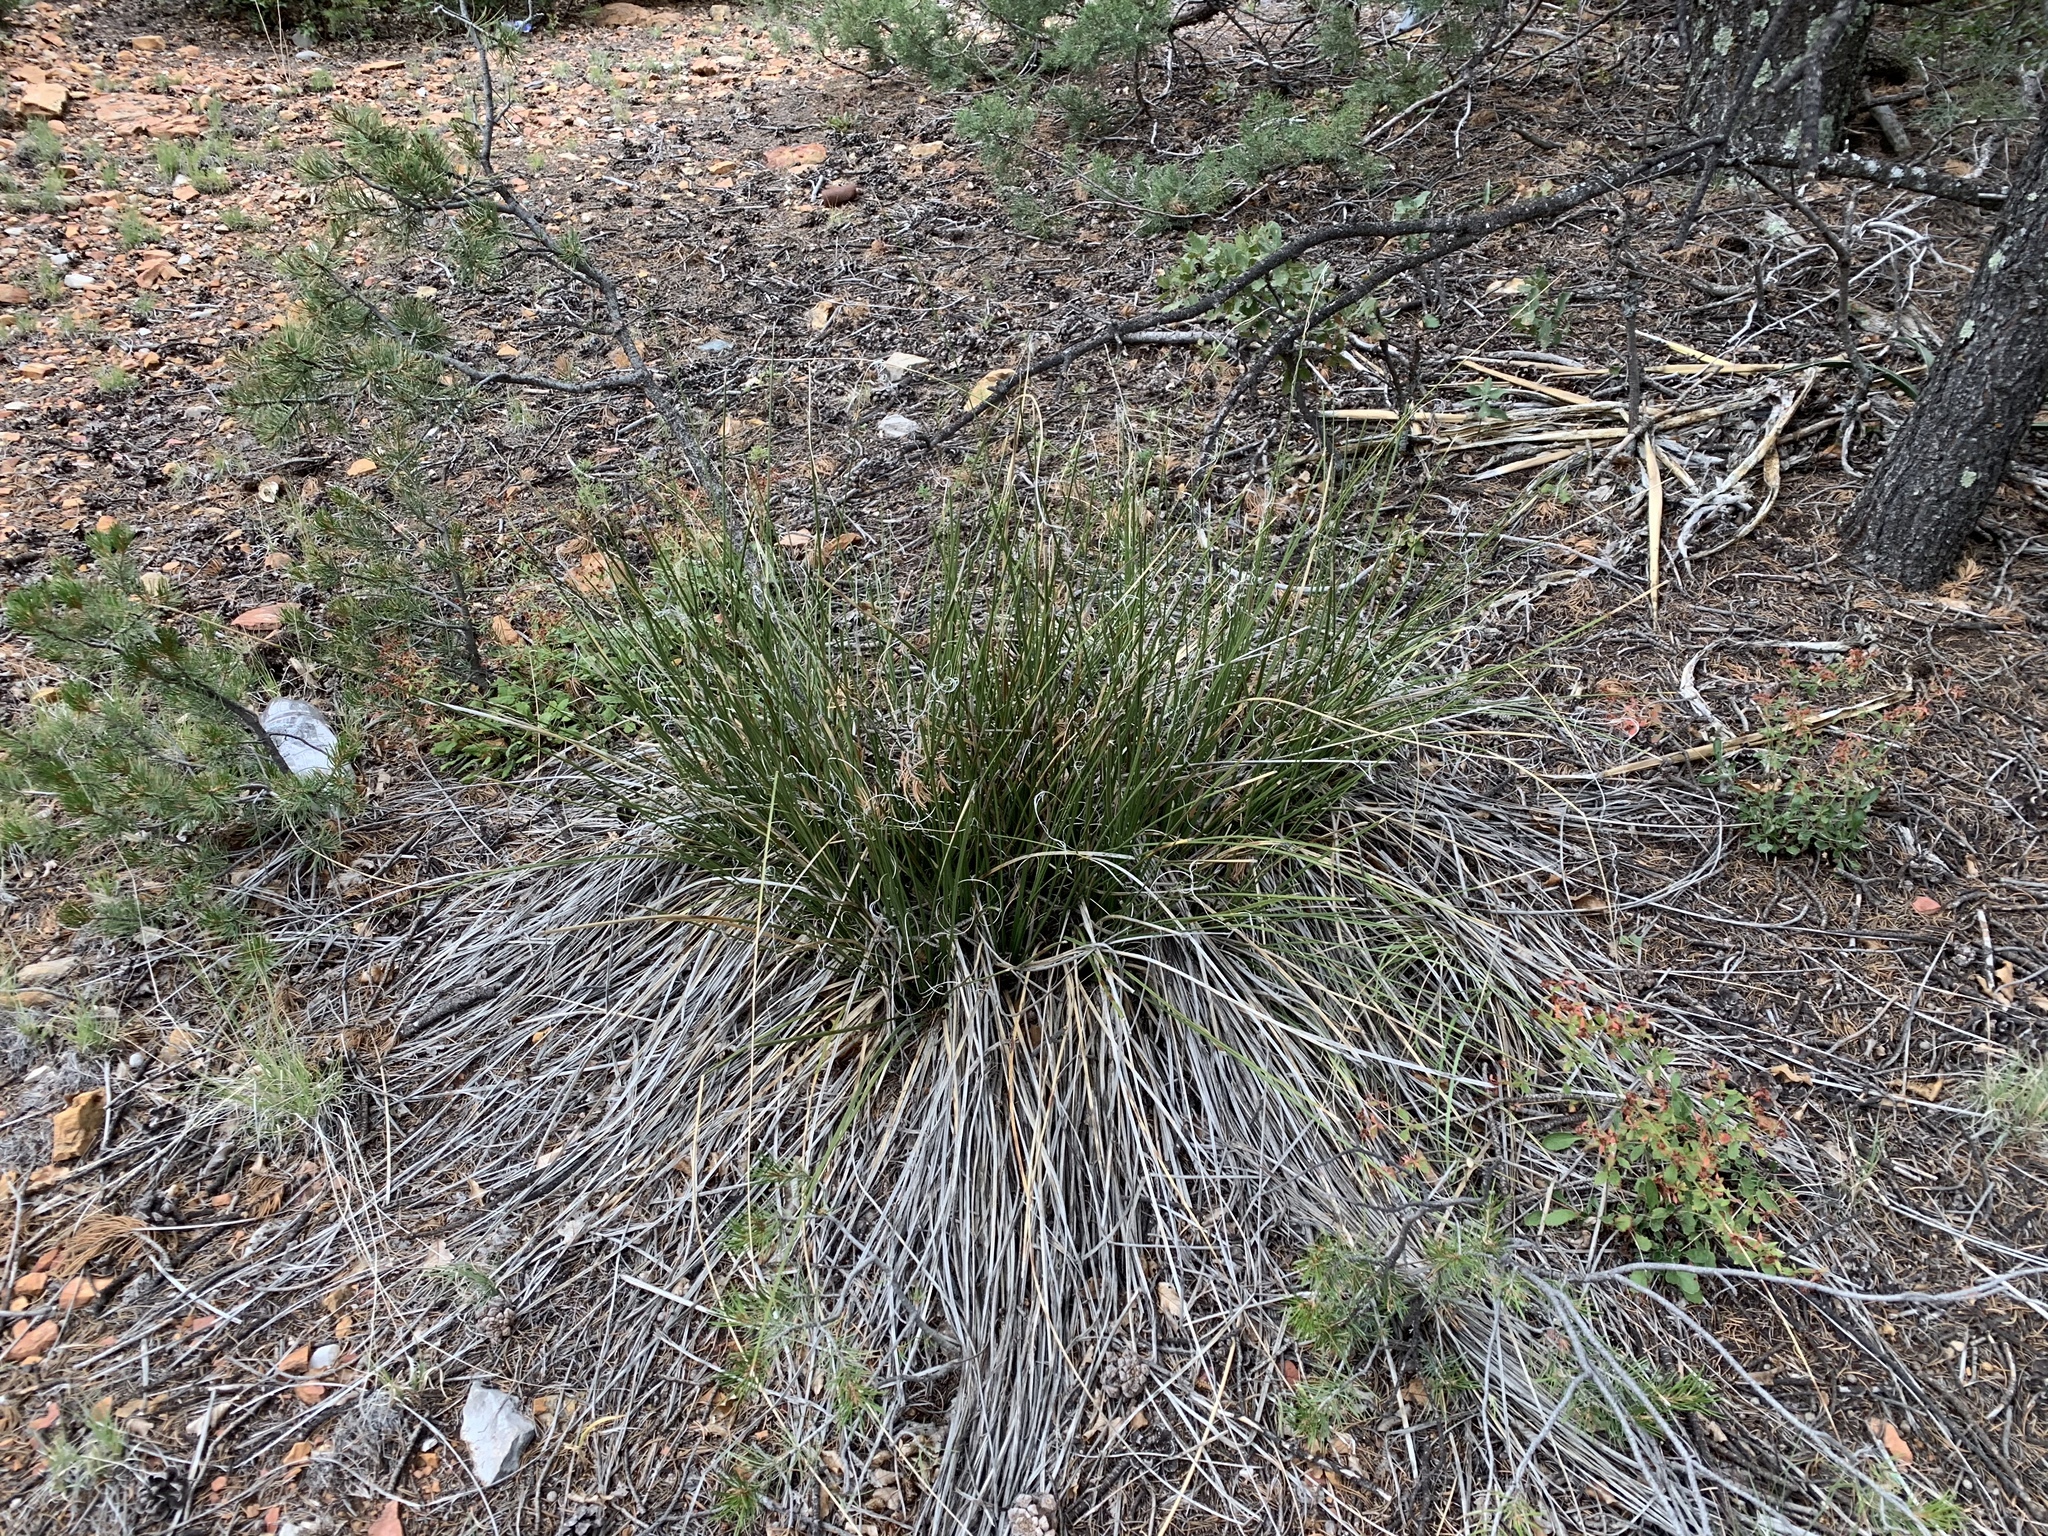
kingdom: Plantae
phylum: Tracheophyta
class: Liliopsida
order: Asparagales
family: Asparagaceae
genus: Nolina
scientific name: Nolina texana
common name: Texas sacahuiste
